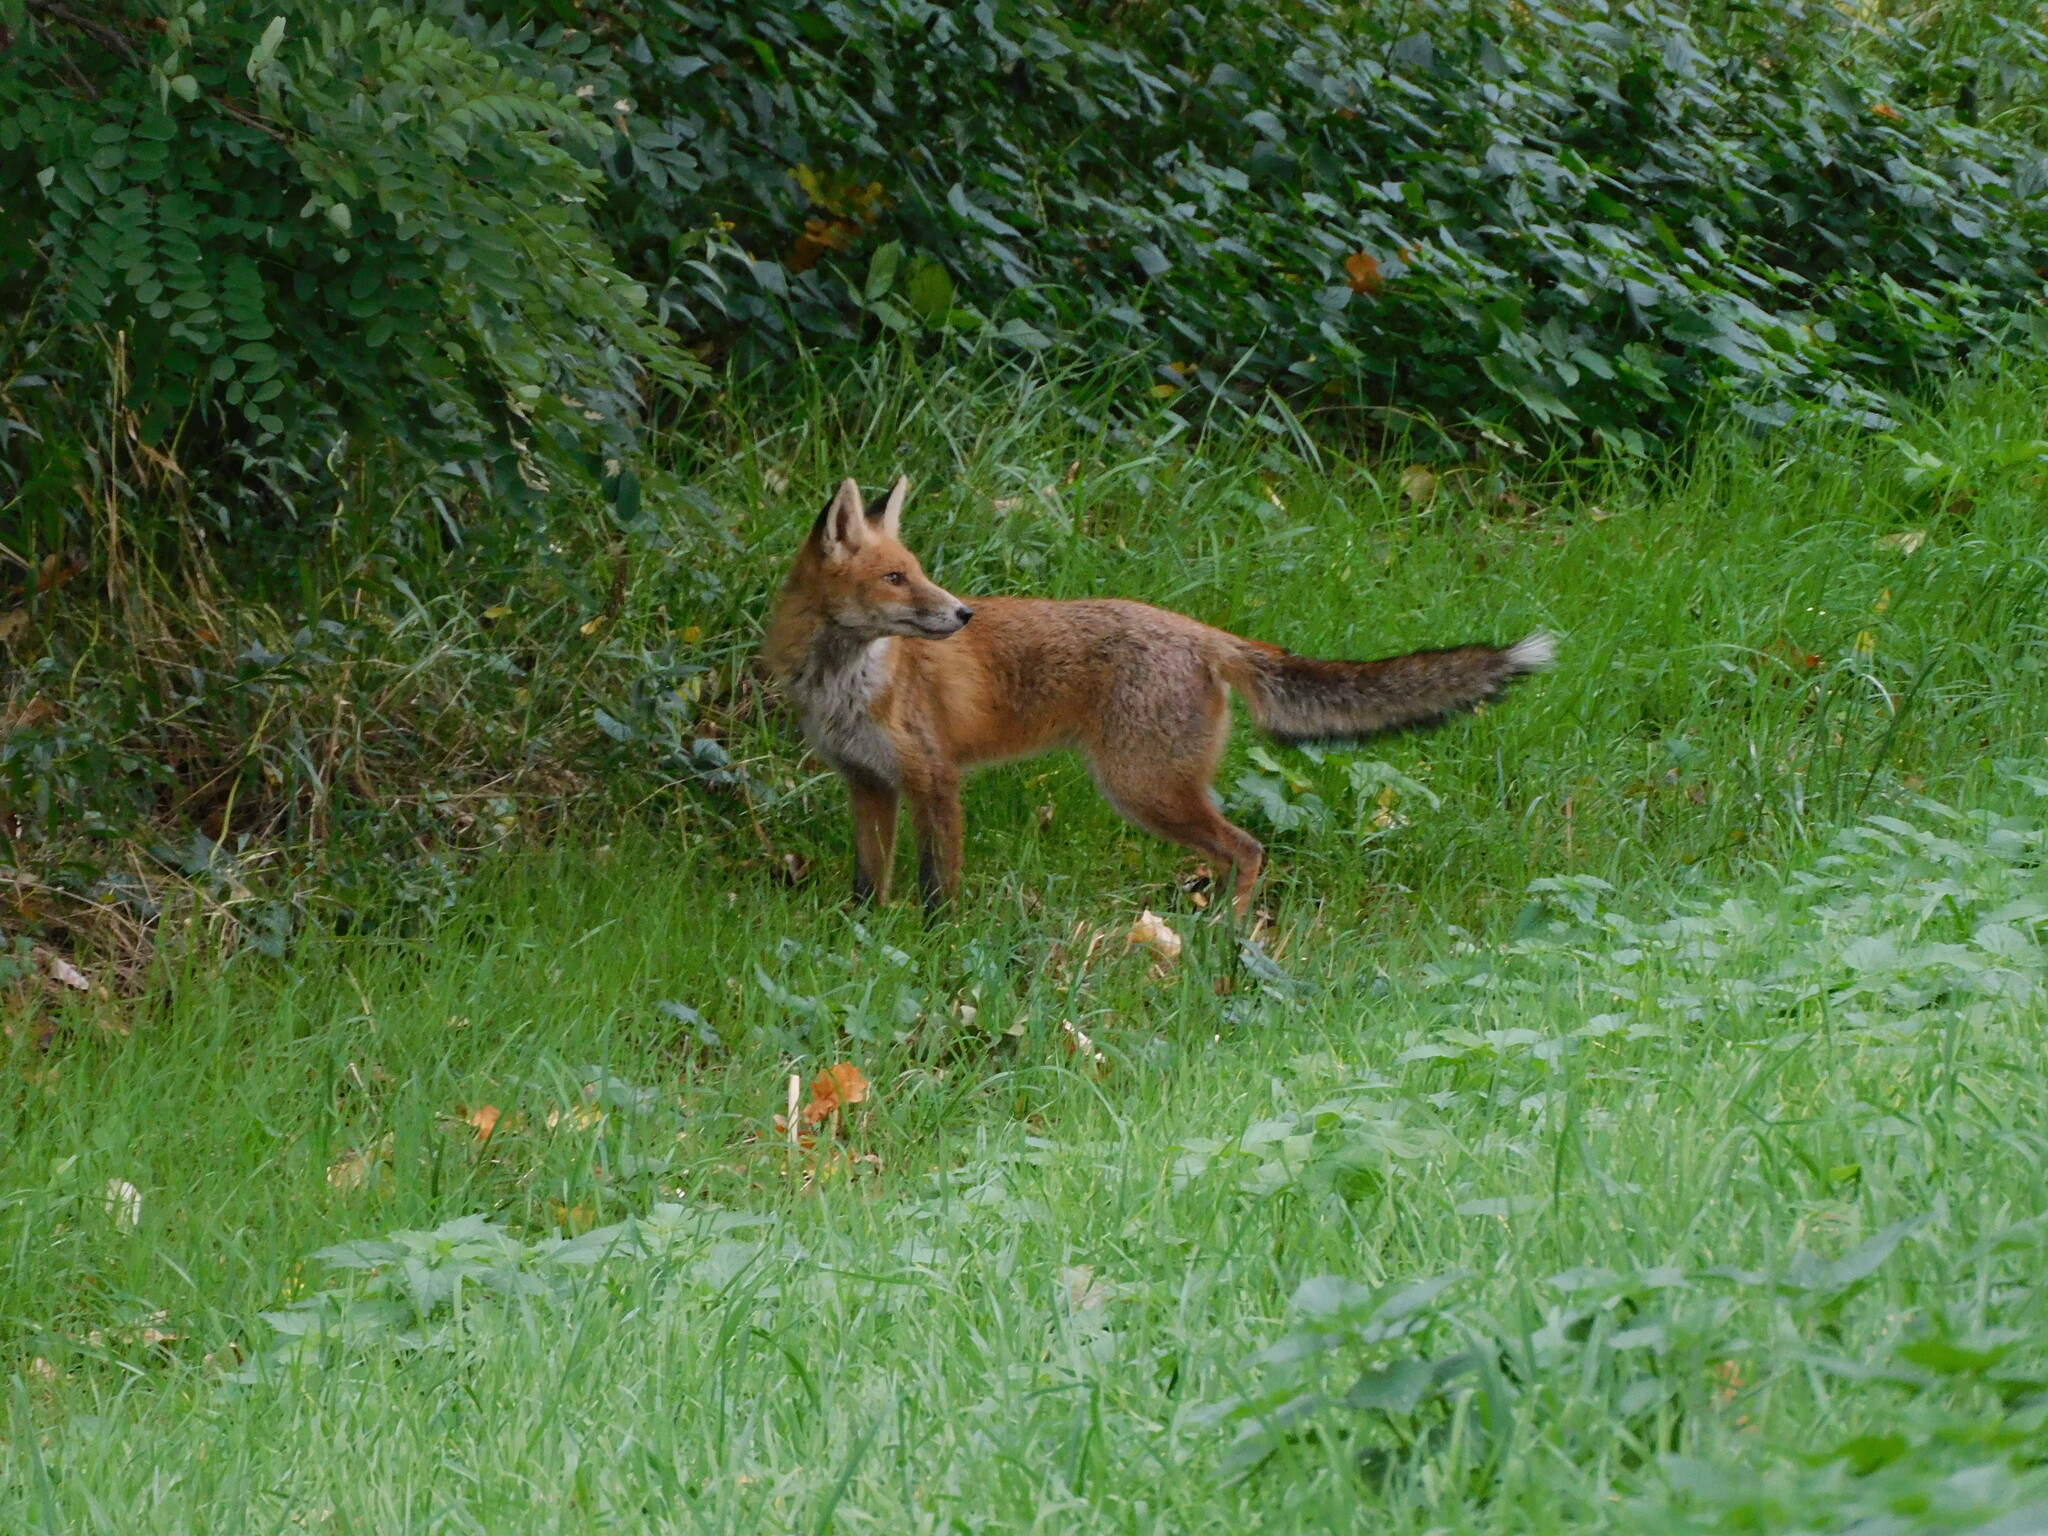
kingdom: Animalia
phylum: Chordata
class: Mammalia
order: Carnivora
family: Canidae
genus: Vulpes
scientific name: Vulpes vulpes
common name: Red fox
